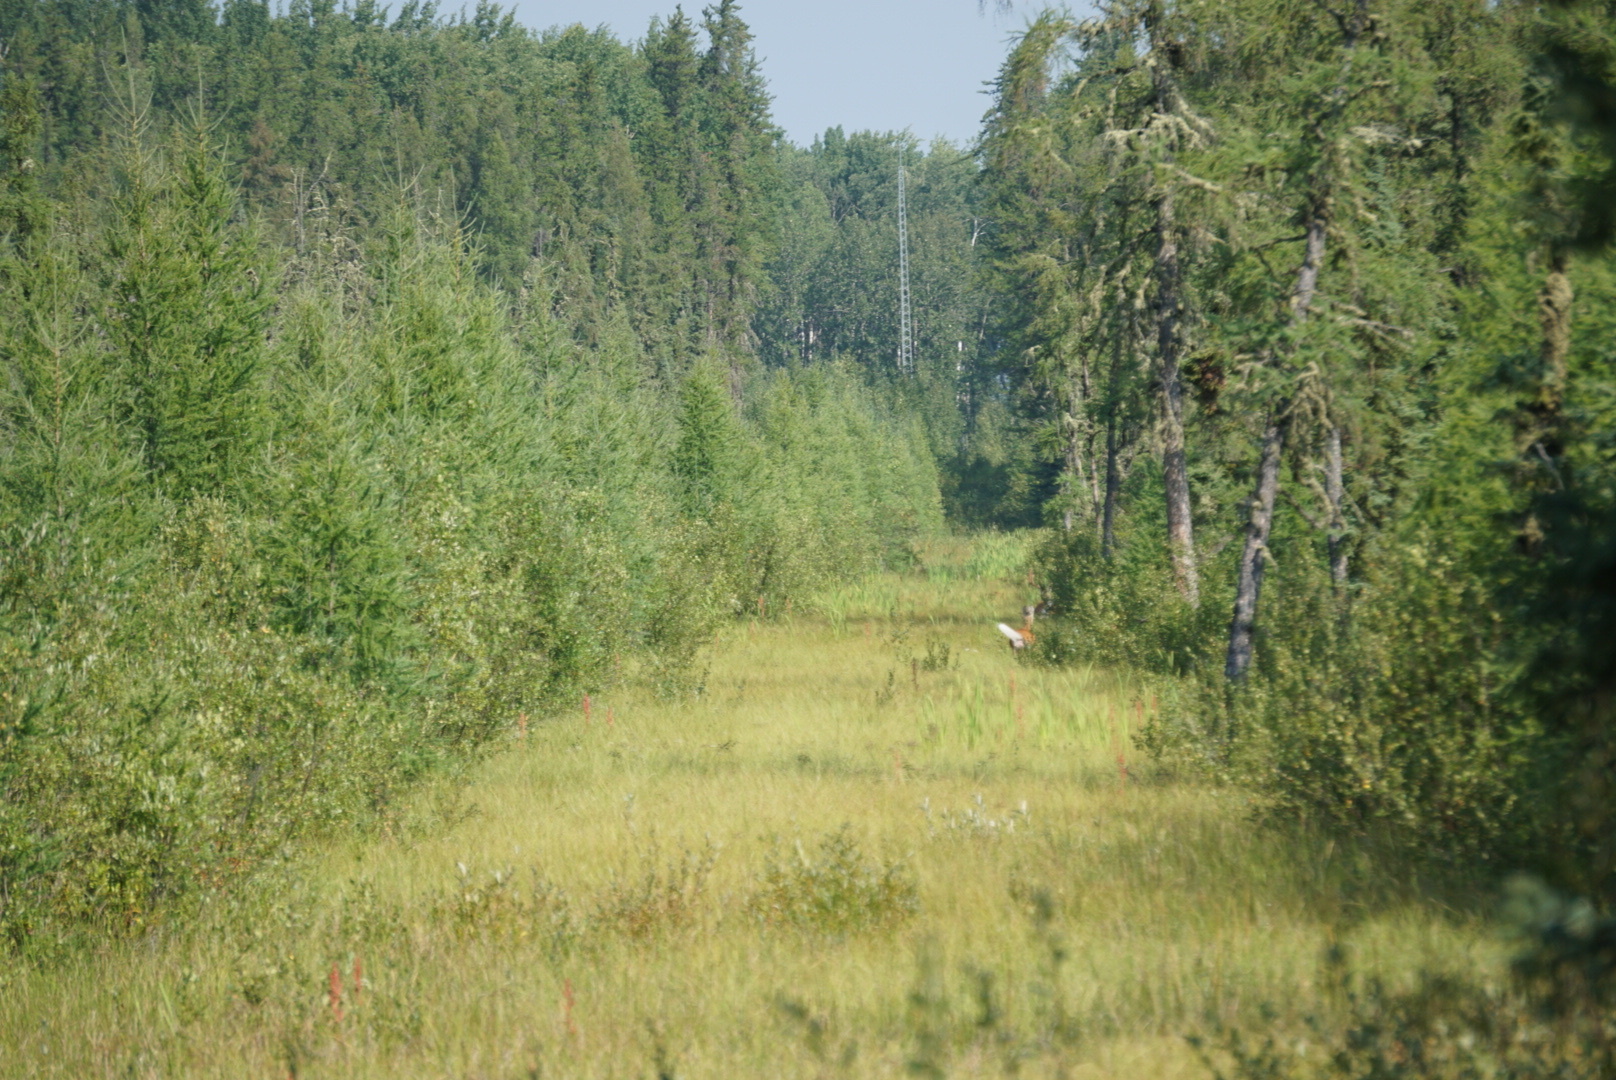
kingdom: Animalia
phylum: Chordata
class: Mammalia
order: Artiodactyla
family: Cervidae
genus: Odocoileus
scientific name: Odocoileus virginianus
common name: White-tailed deer
